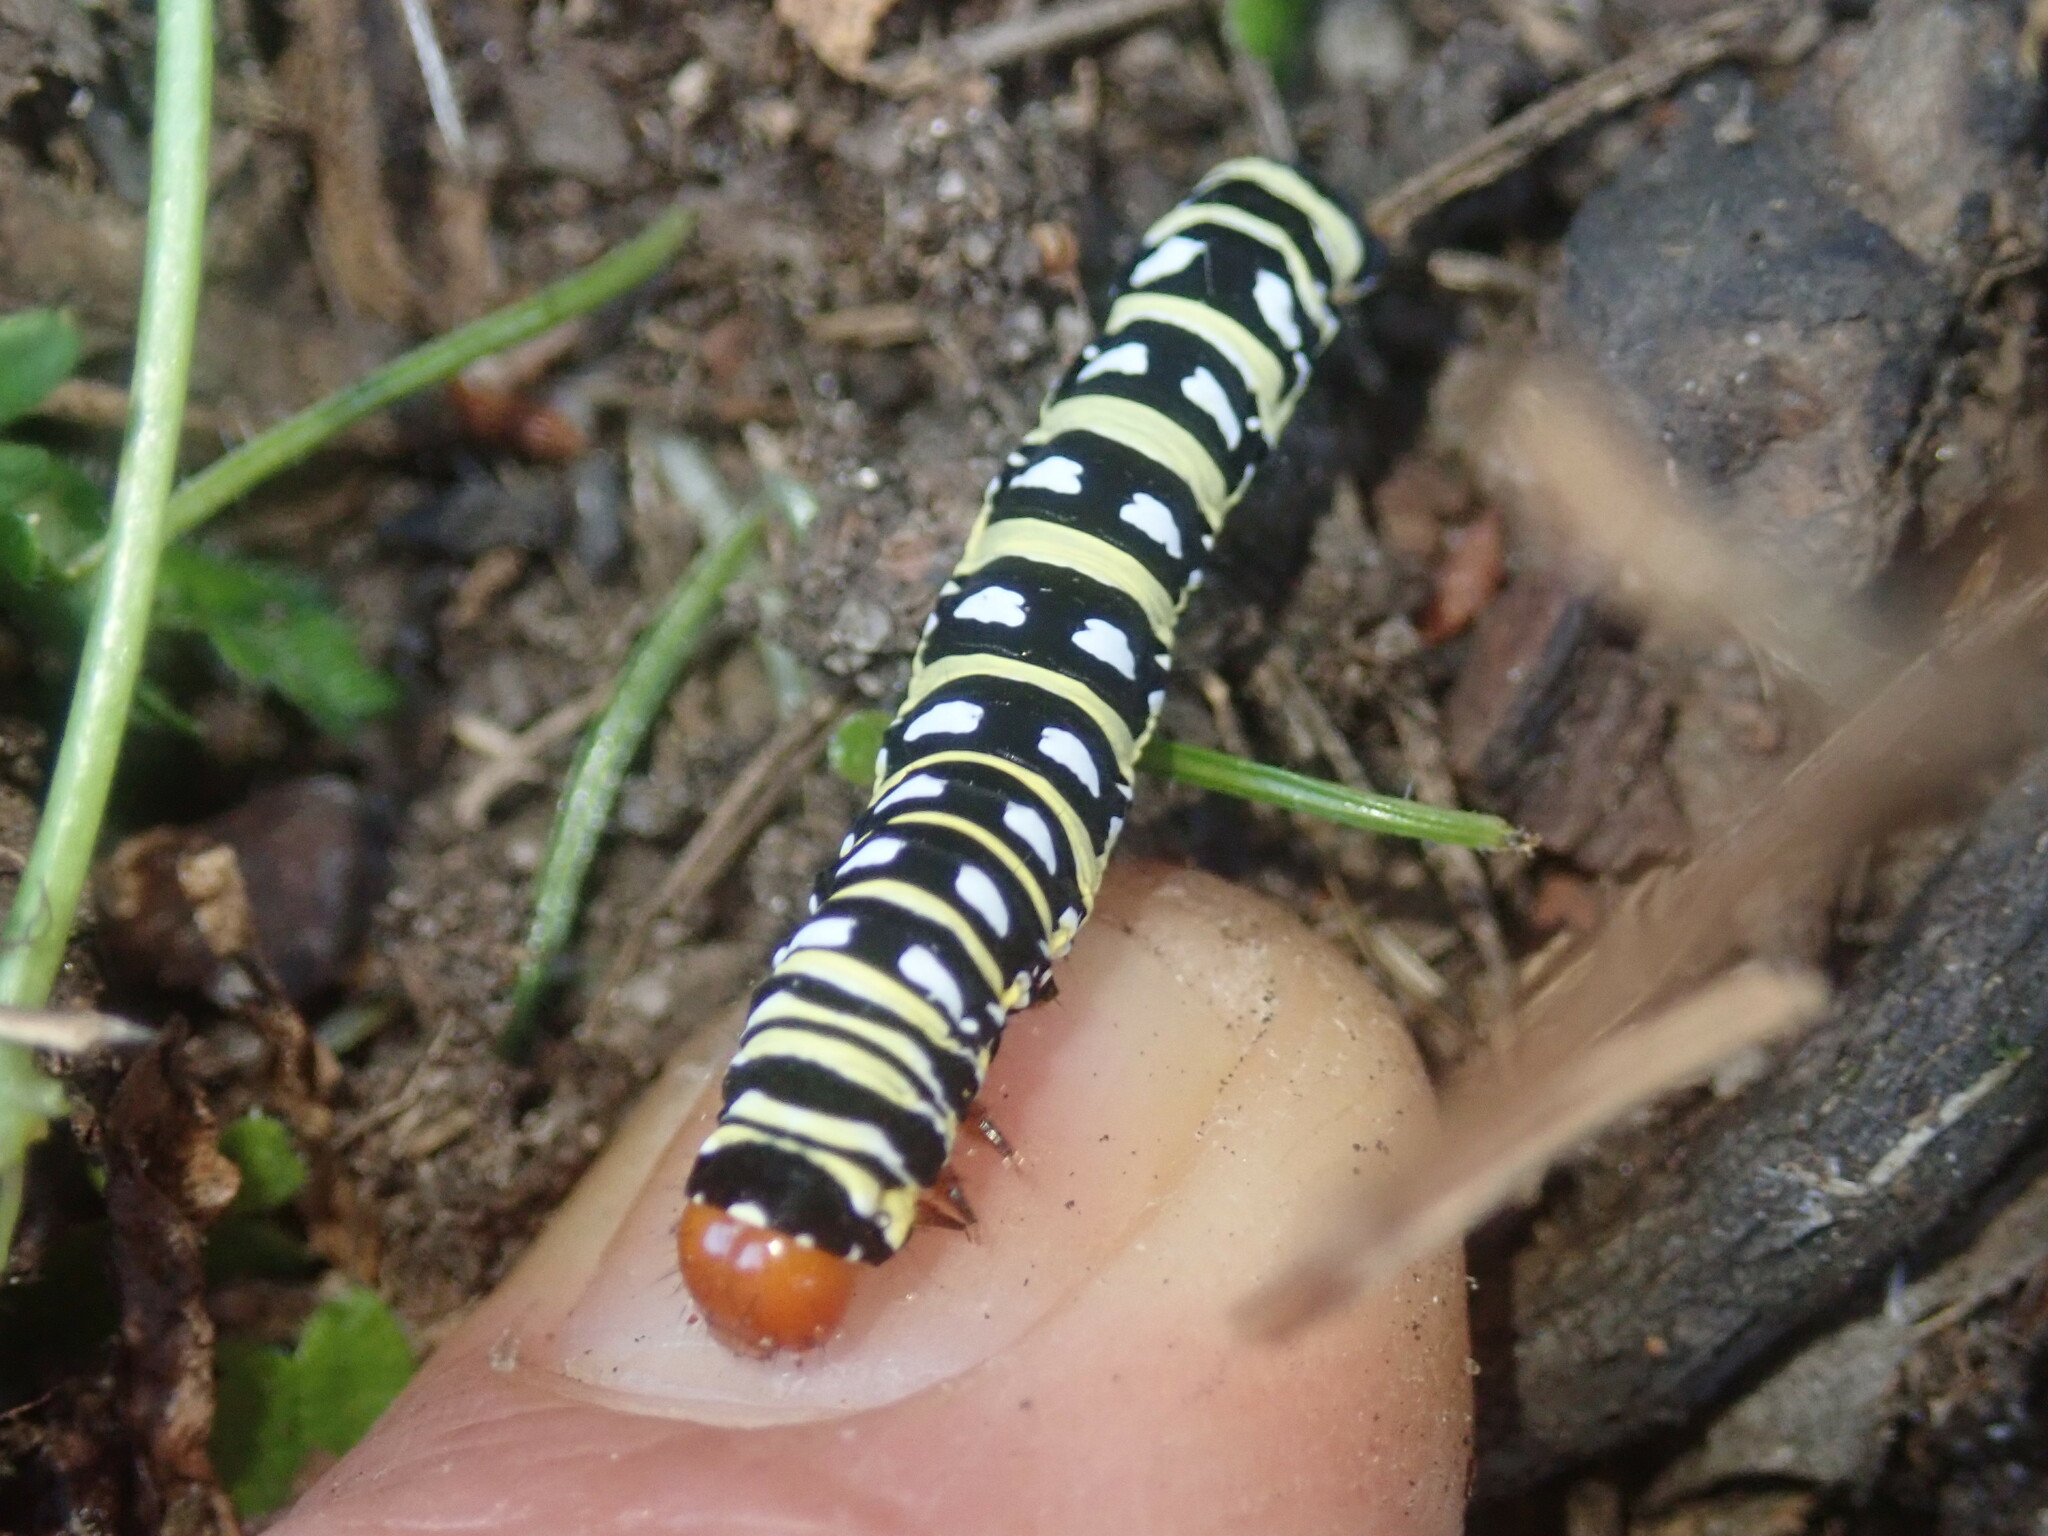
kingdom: Animalia
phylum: Arthropoda
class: Insecta
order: Lepidoptera
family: Noctuidae
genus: Klugeana
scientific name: Klugeana philoxalis
